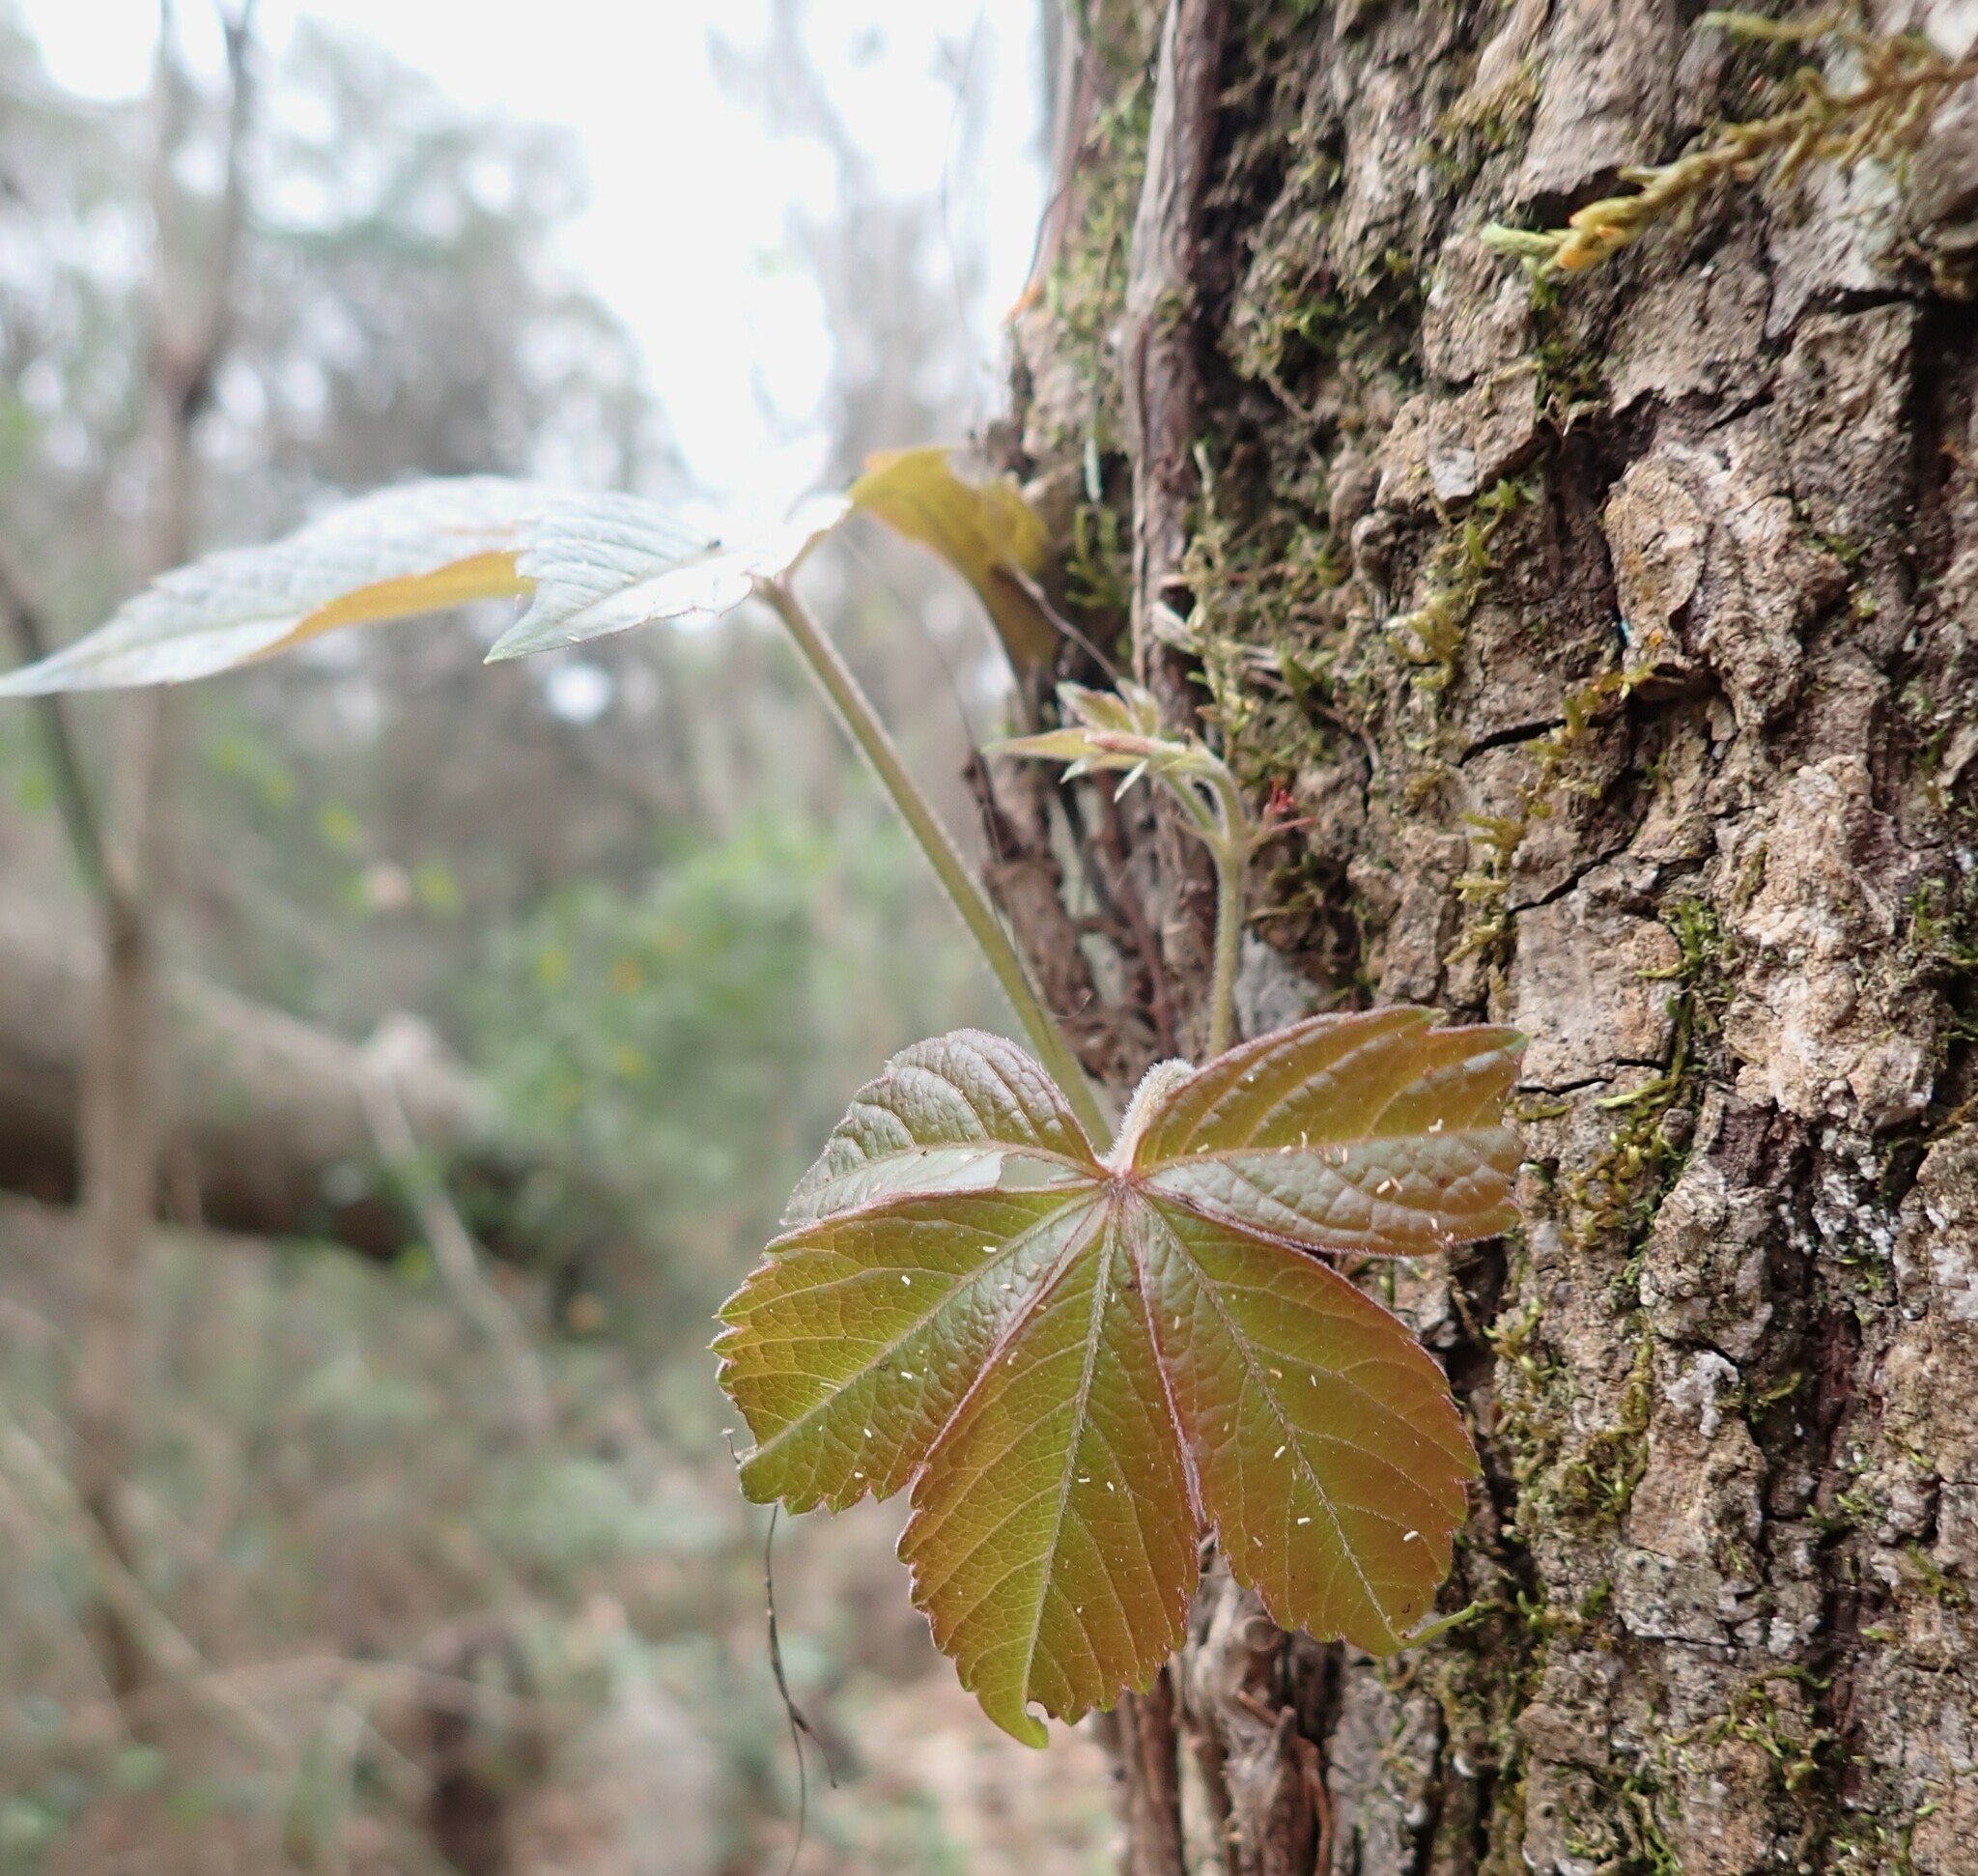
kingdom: Plantae
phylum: Tracheophyta
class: Magnoliopsida
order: Vitales
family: Vitaceae
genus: Parthenocissus
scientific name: Parthenocissus quinquefolia
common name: Virginia-creeper
